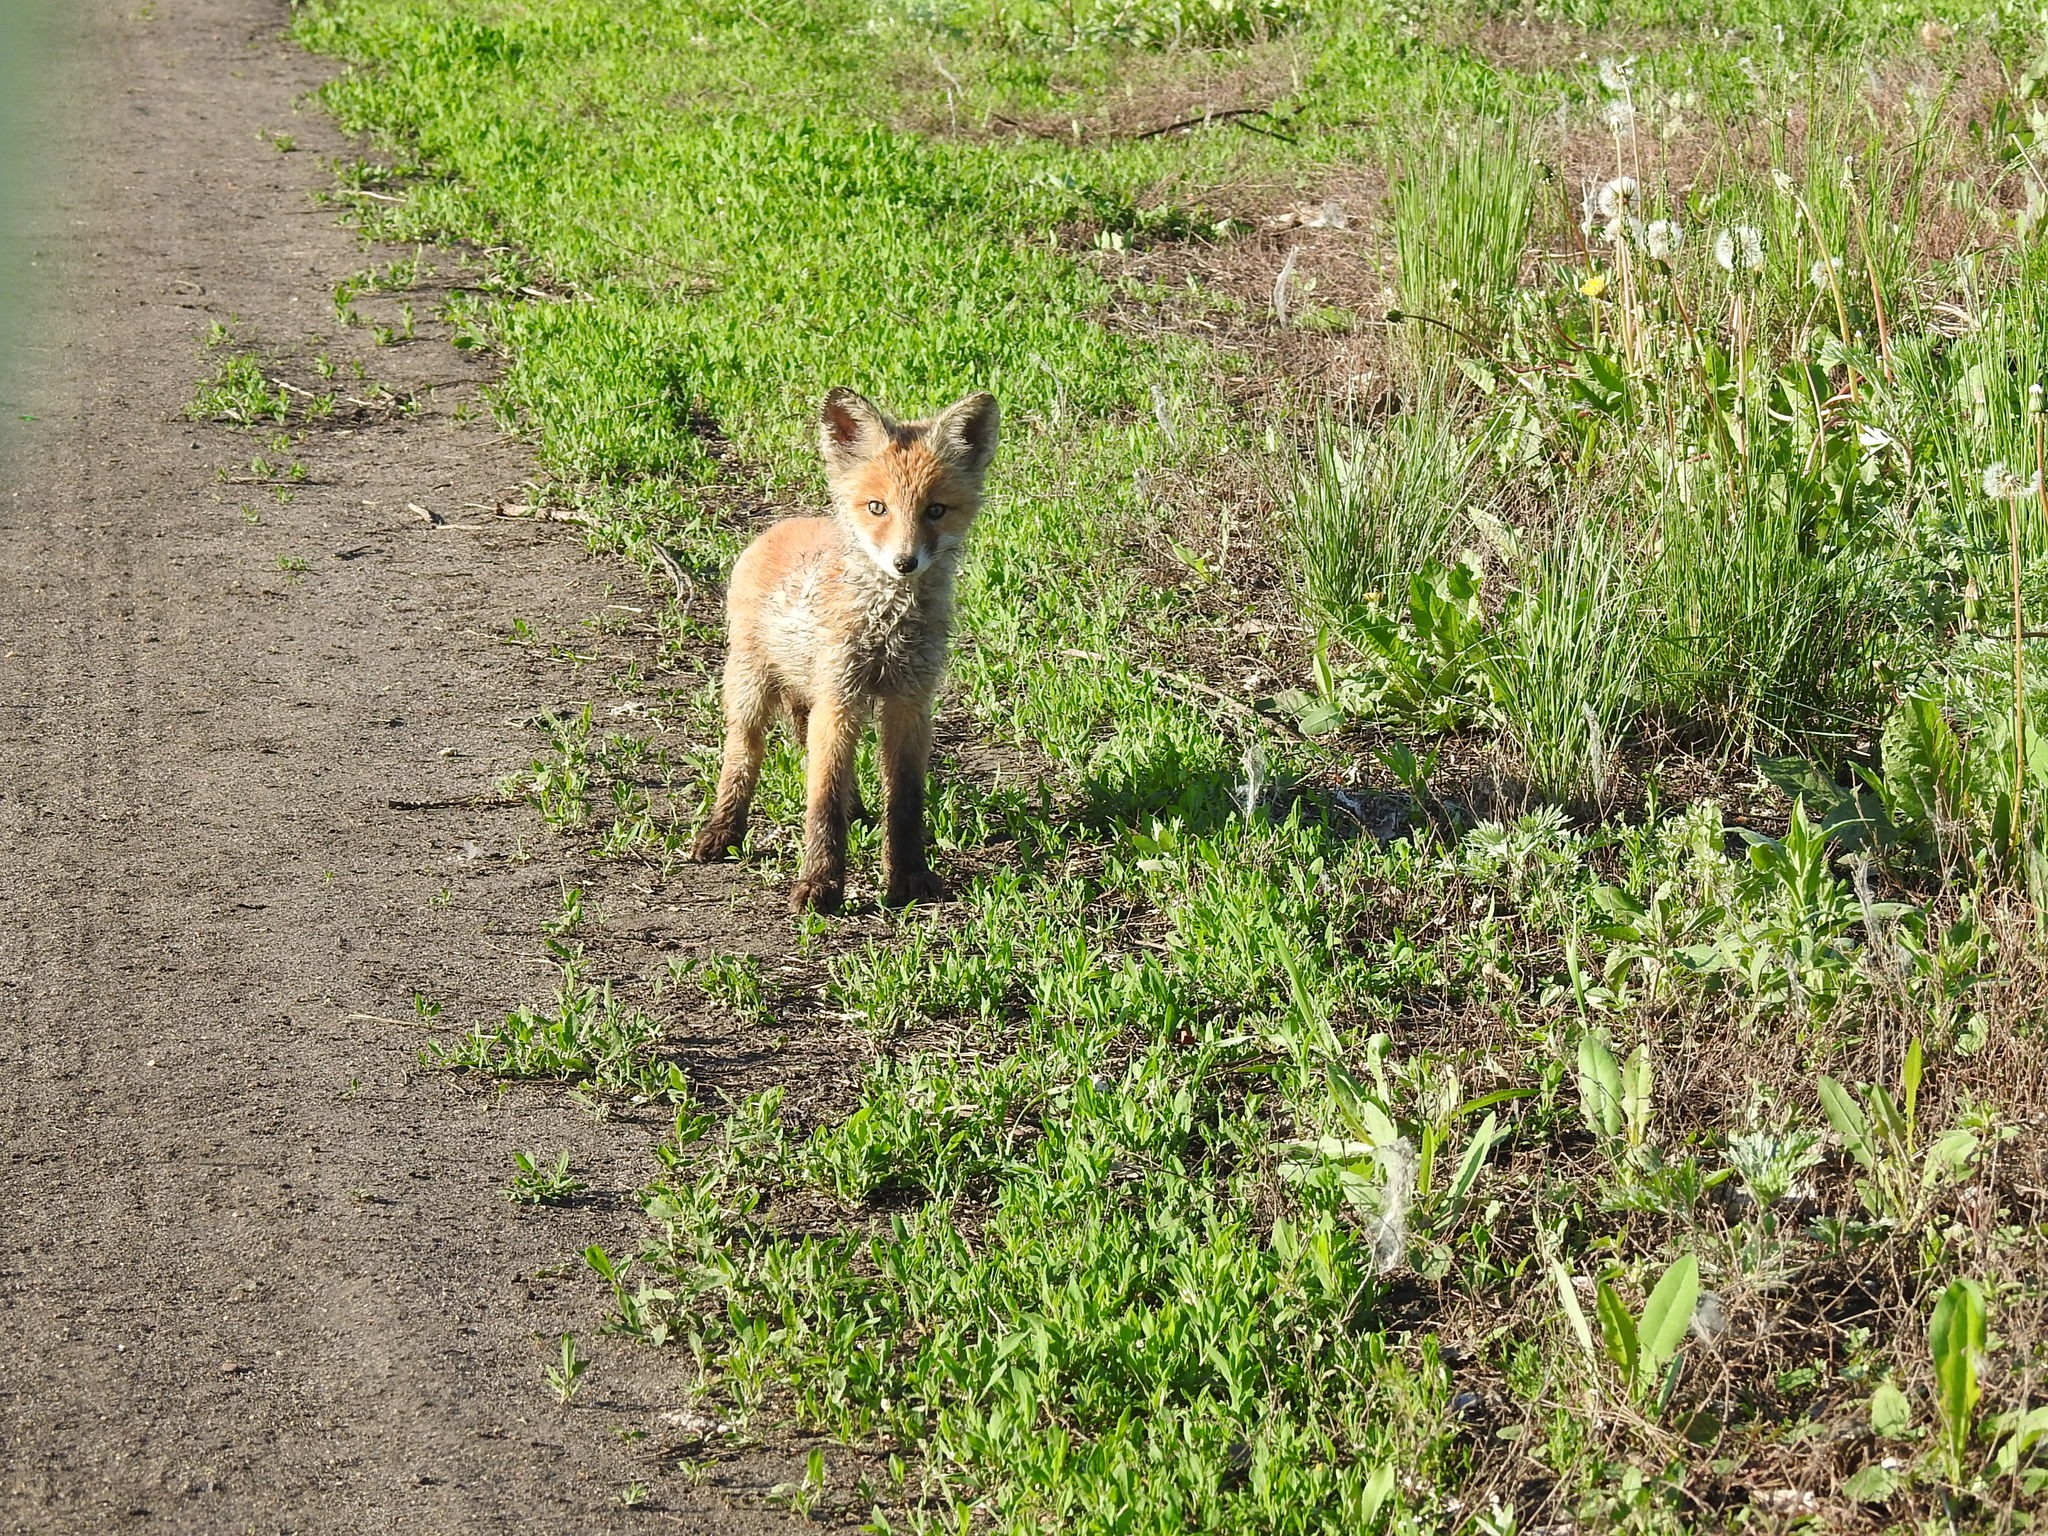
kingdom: Animalia
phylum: Chordata
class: Mammalia
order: Carnivora
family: Canidae
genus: Vulpes
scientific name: Vulpes vulpes
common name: Red fox
